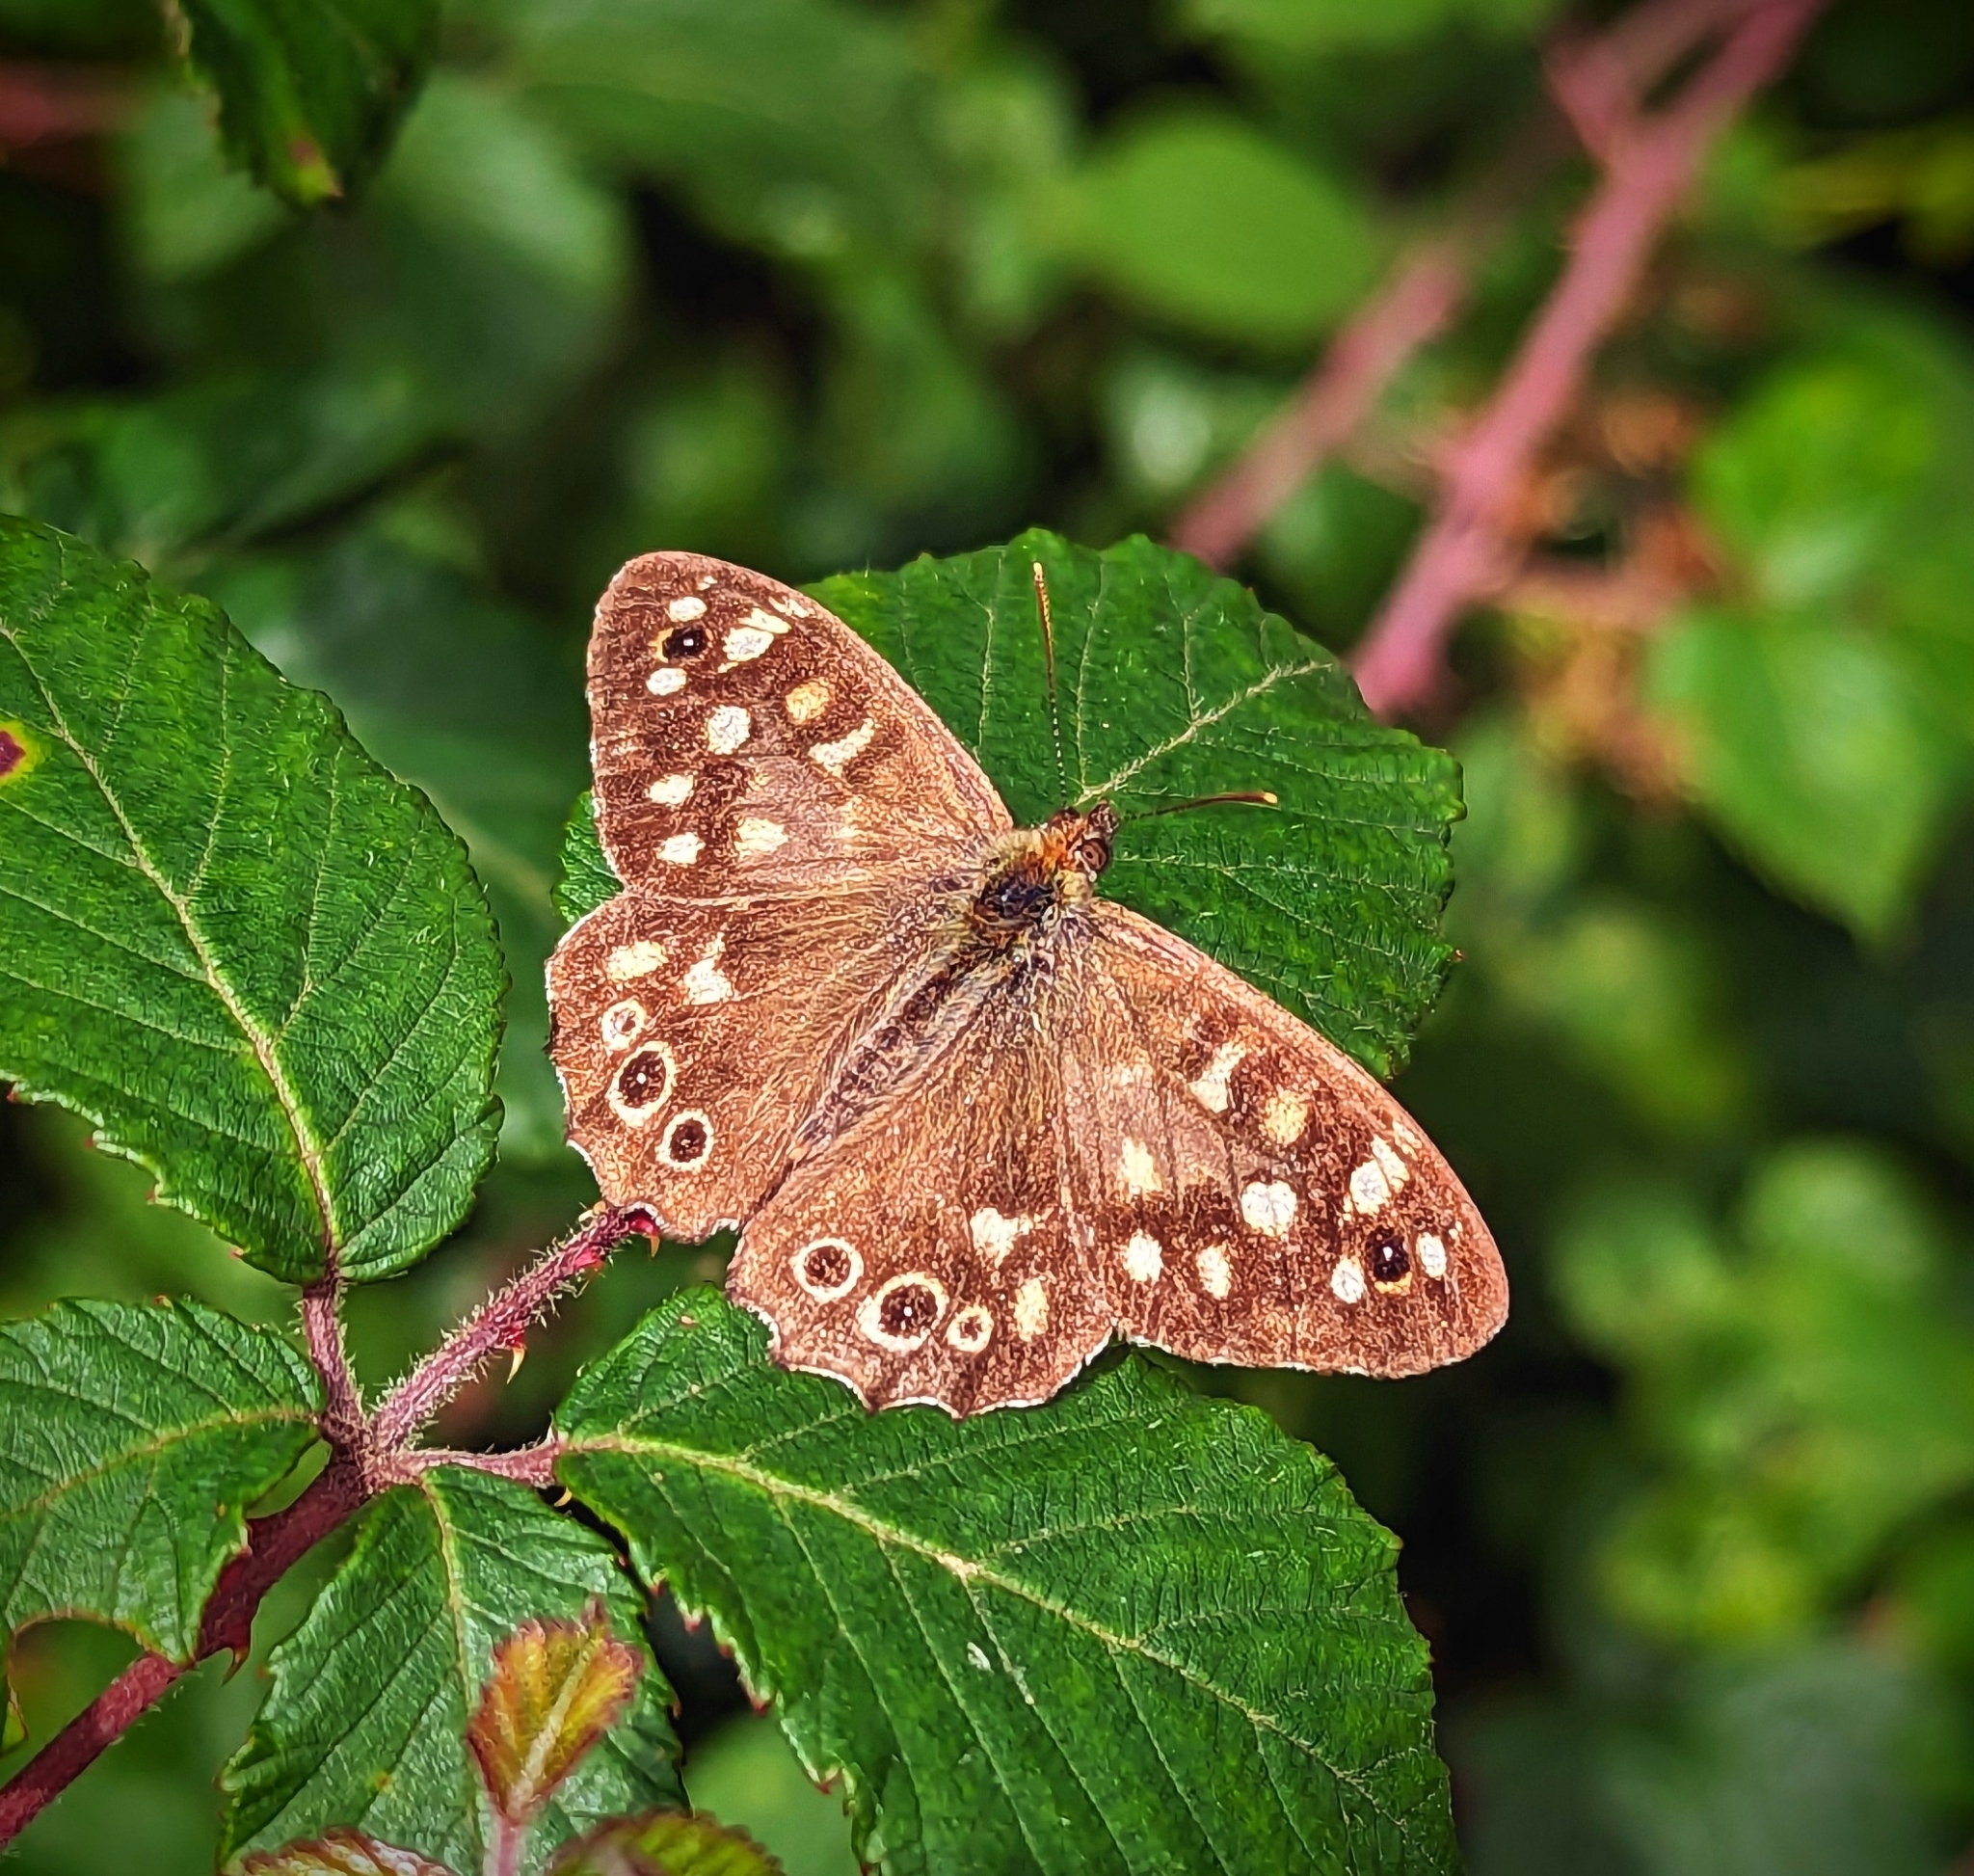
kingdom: Animalia
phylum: Arthropoda
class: Insecta
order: Lepidoptera
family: Nymphalidae
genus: Pararge
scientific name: Pararge aegeria
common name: Speckled wood
